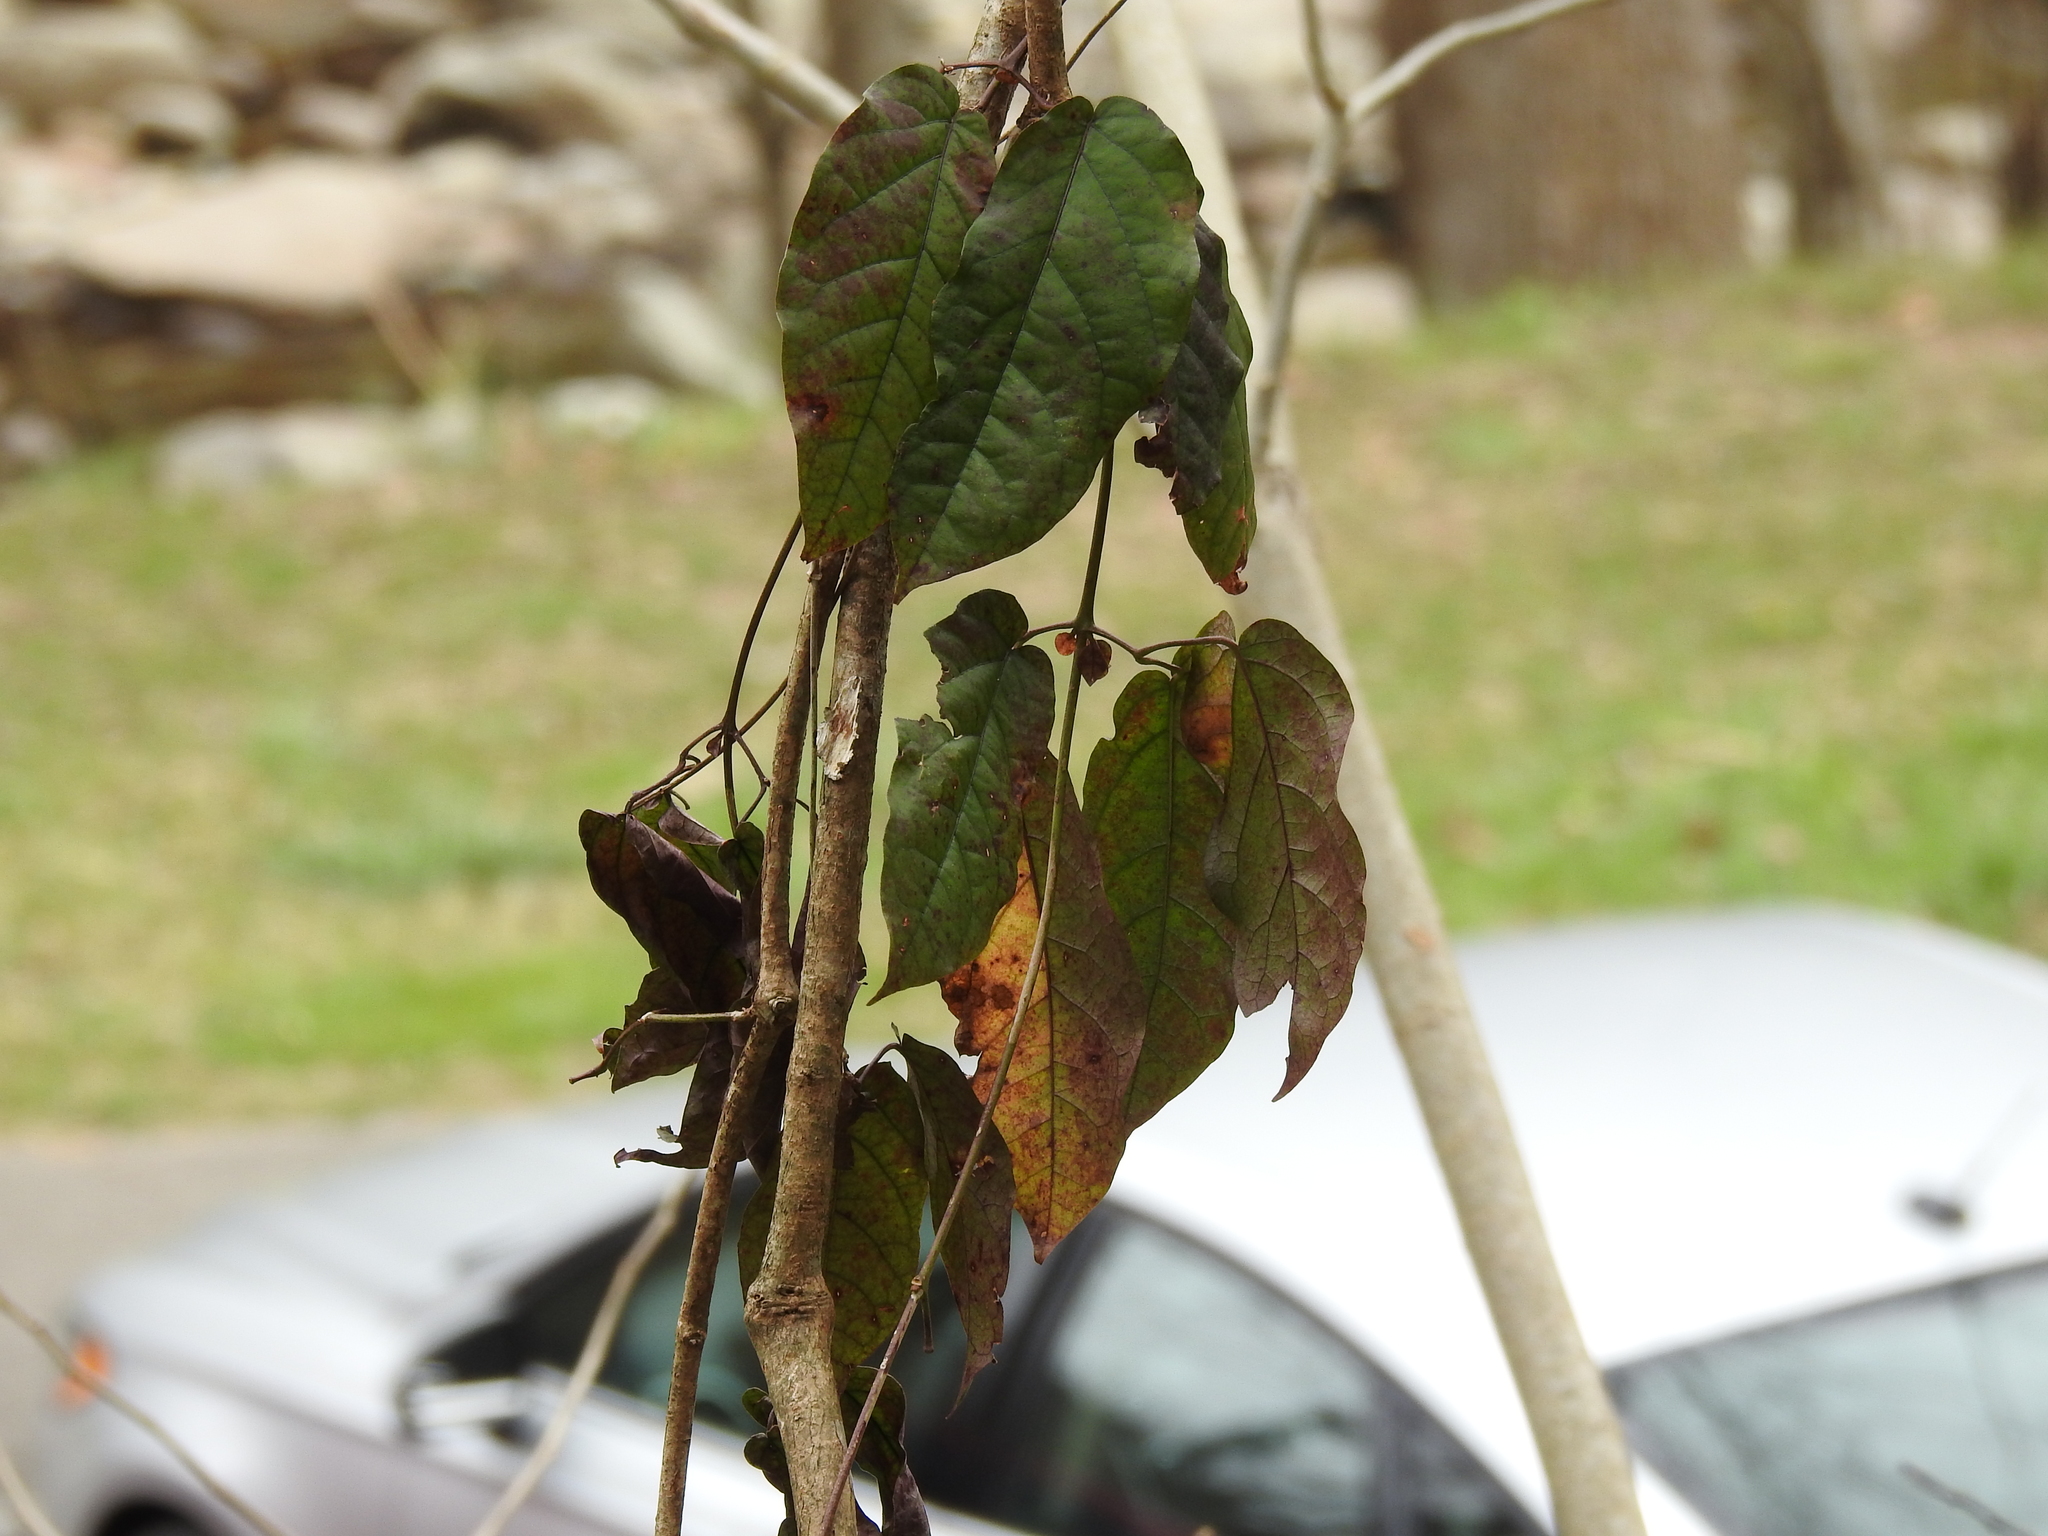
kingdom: Plantae
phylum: Tracheophyta
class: Magnoliopsida
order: Lamiales
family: Bignoniaceae
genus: Bignonia
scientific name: Bignonia capreolata
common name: Crossvine
